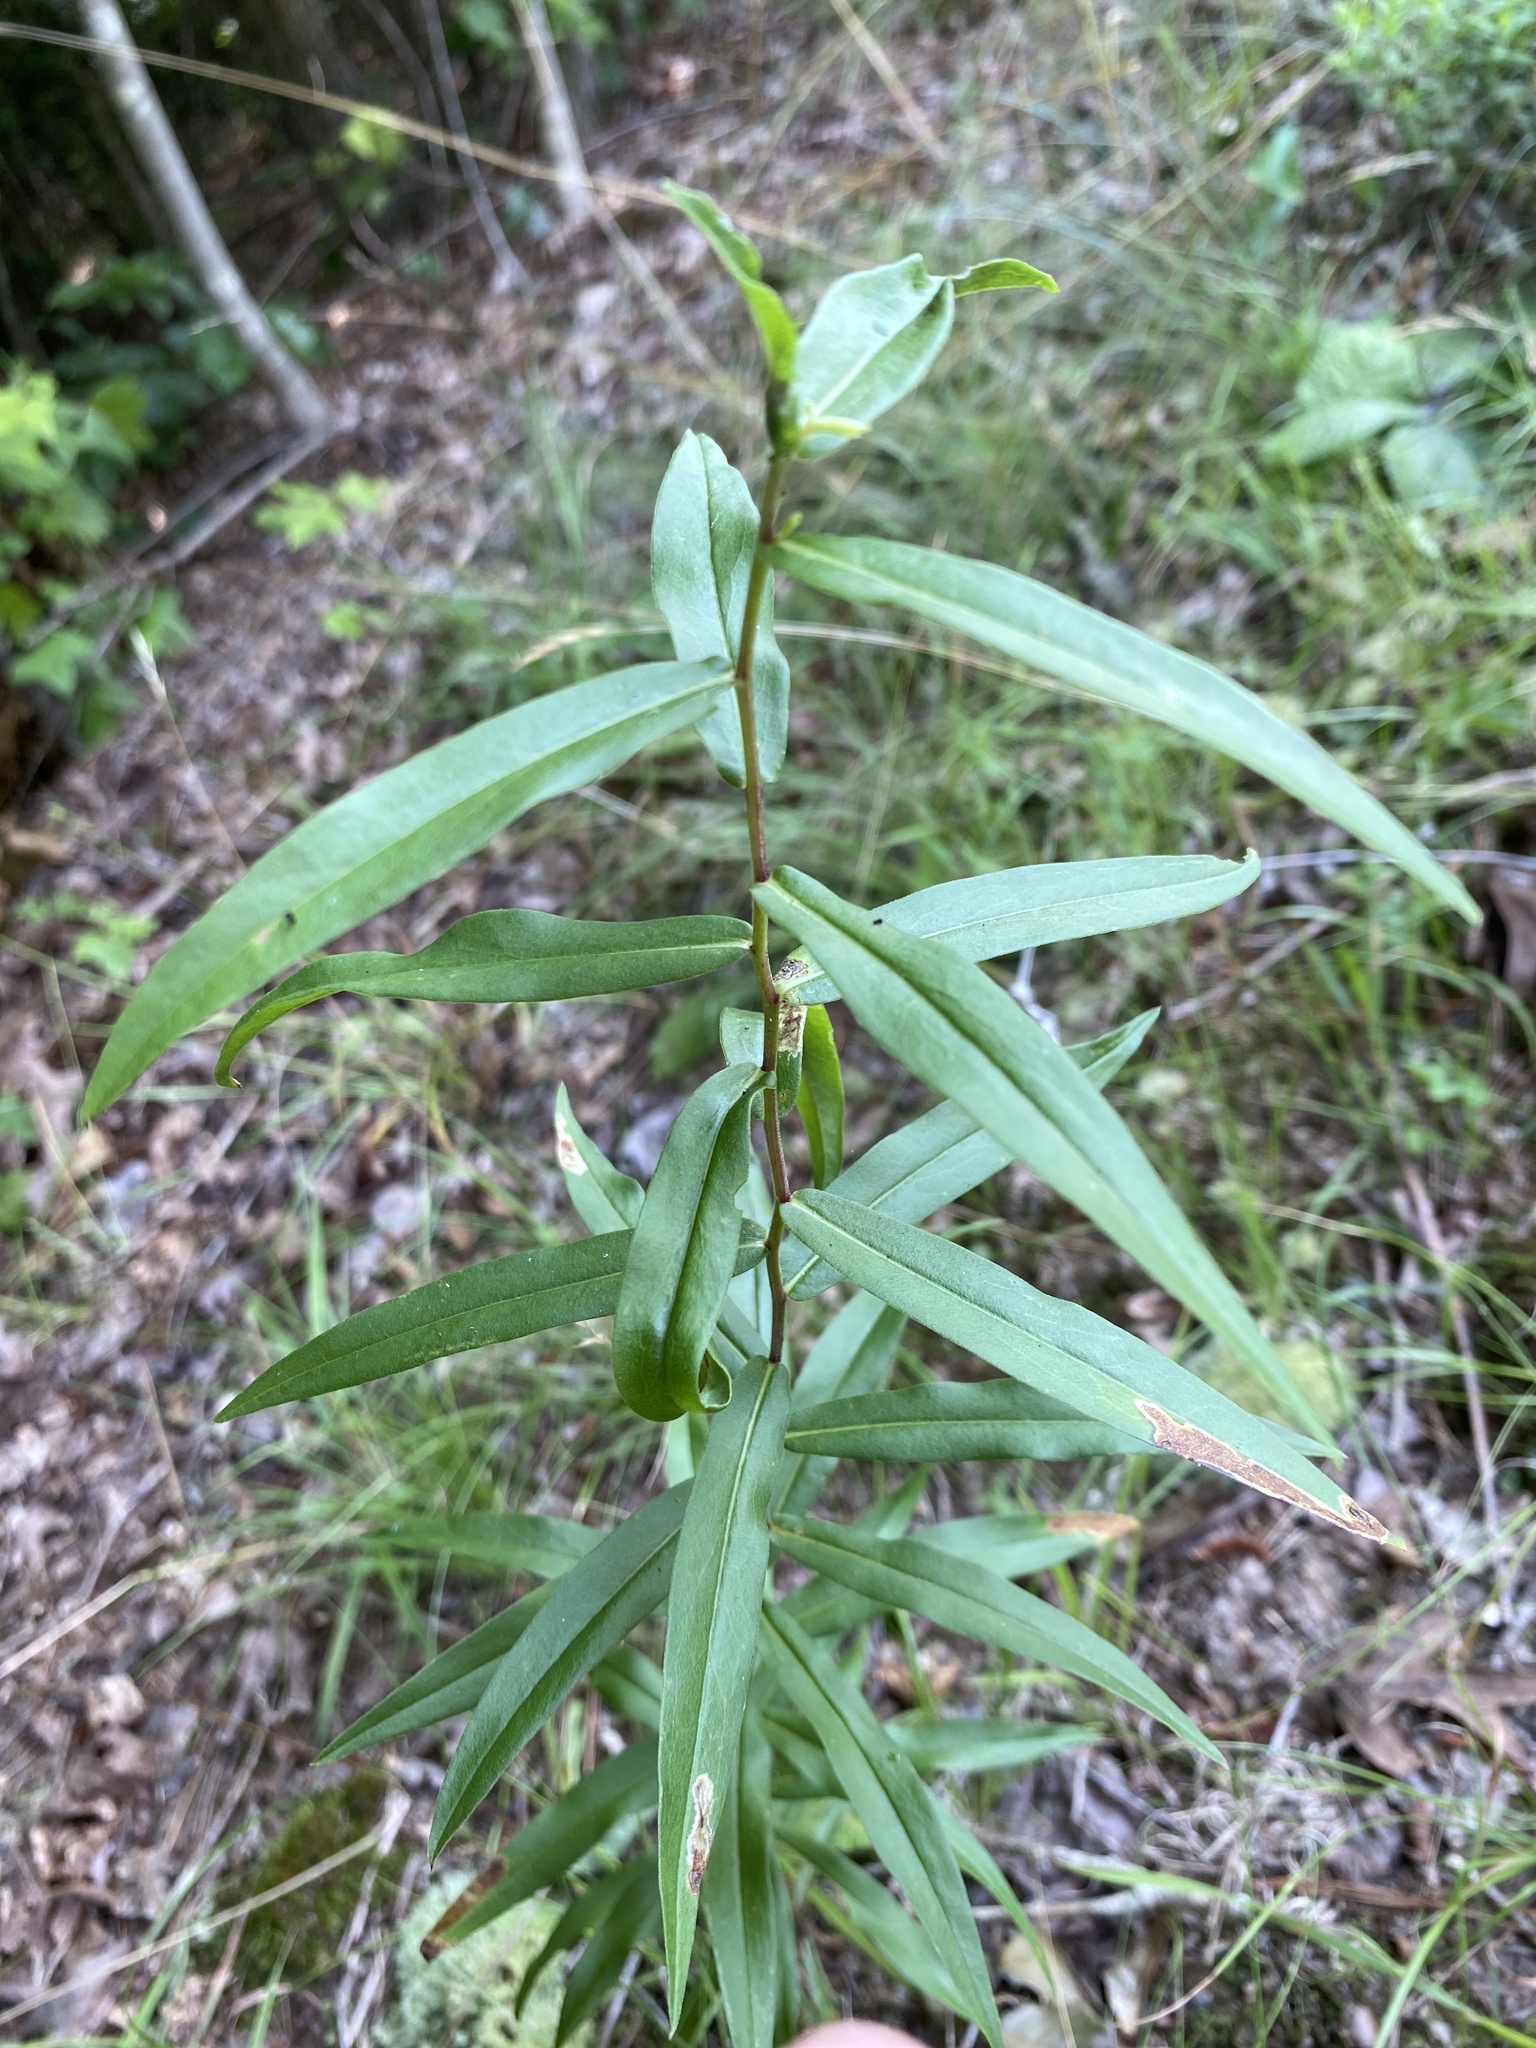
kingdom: Plantae
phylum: Tracheophyta
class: Magnoliopsida
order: Asterales
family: Asteraceae
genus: Solidago
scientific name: Solidago odora
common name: Anise-scented goldenrod
